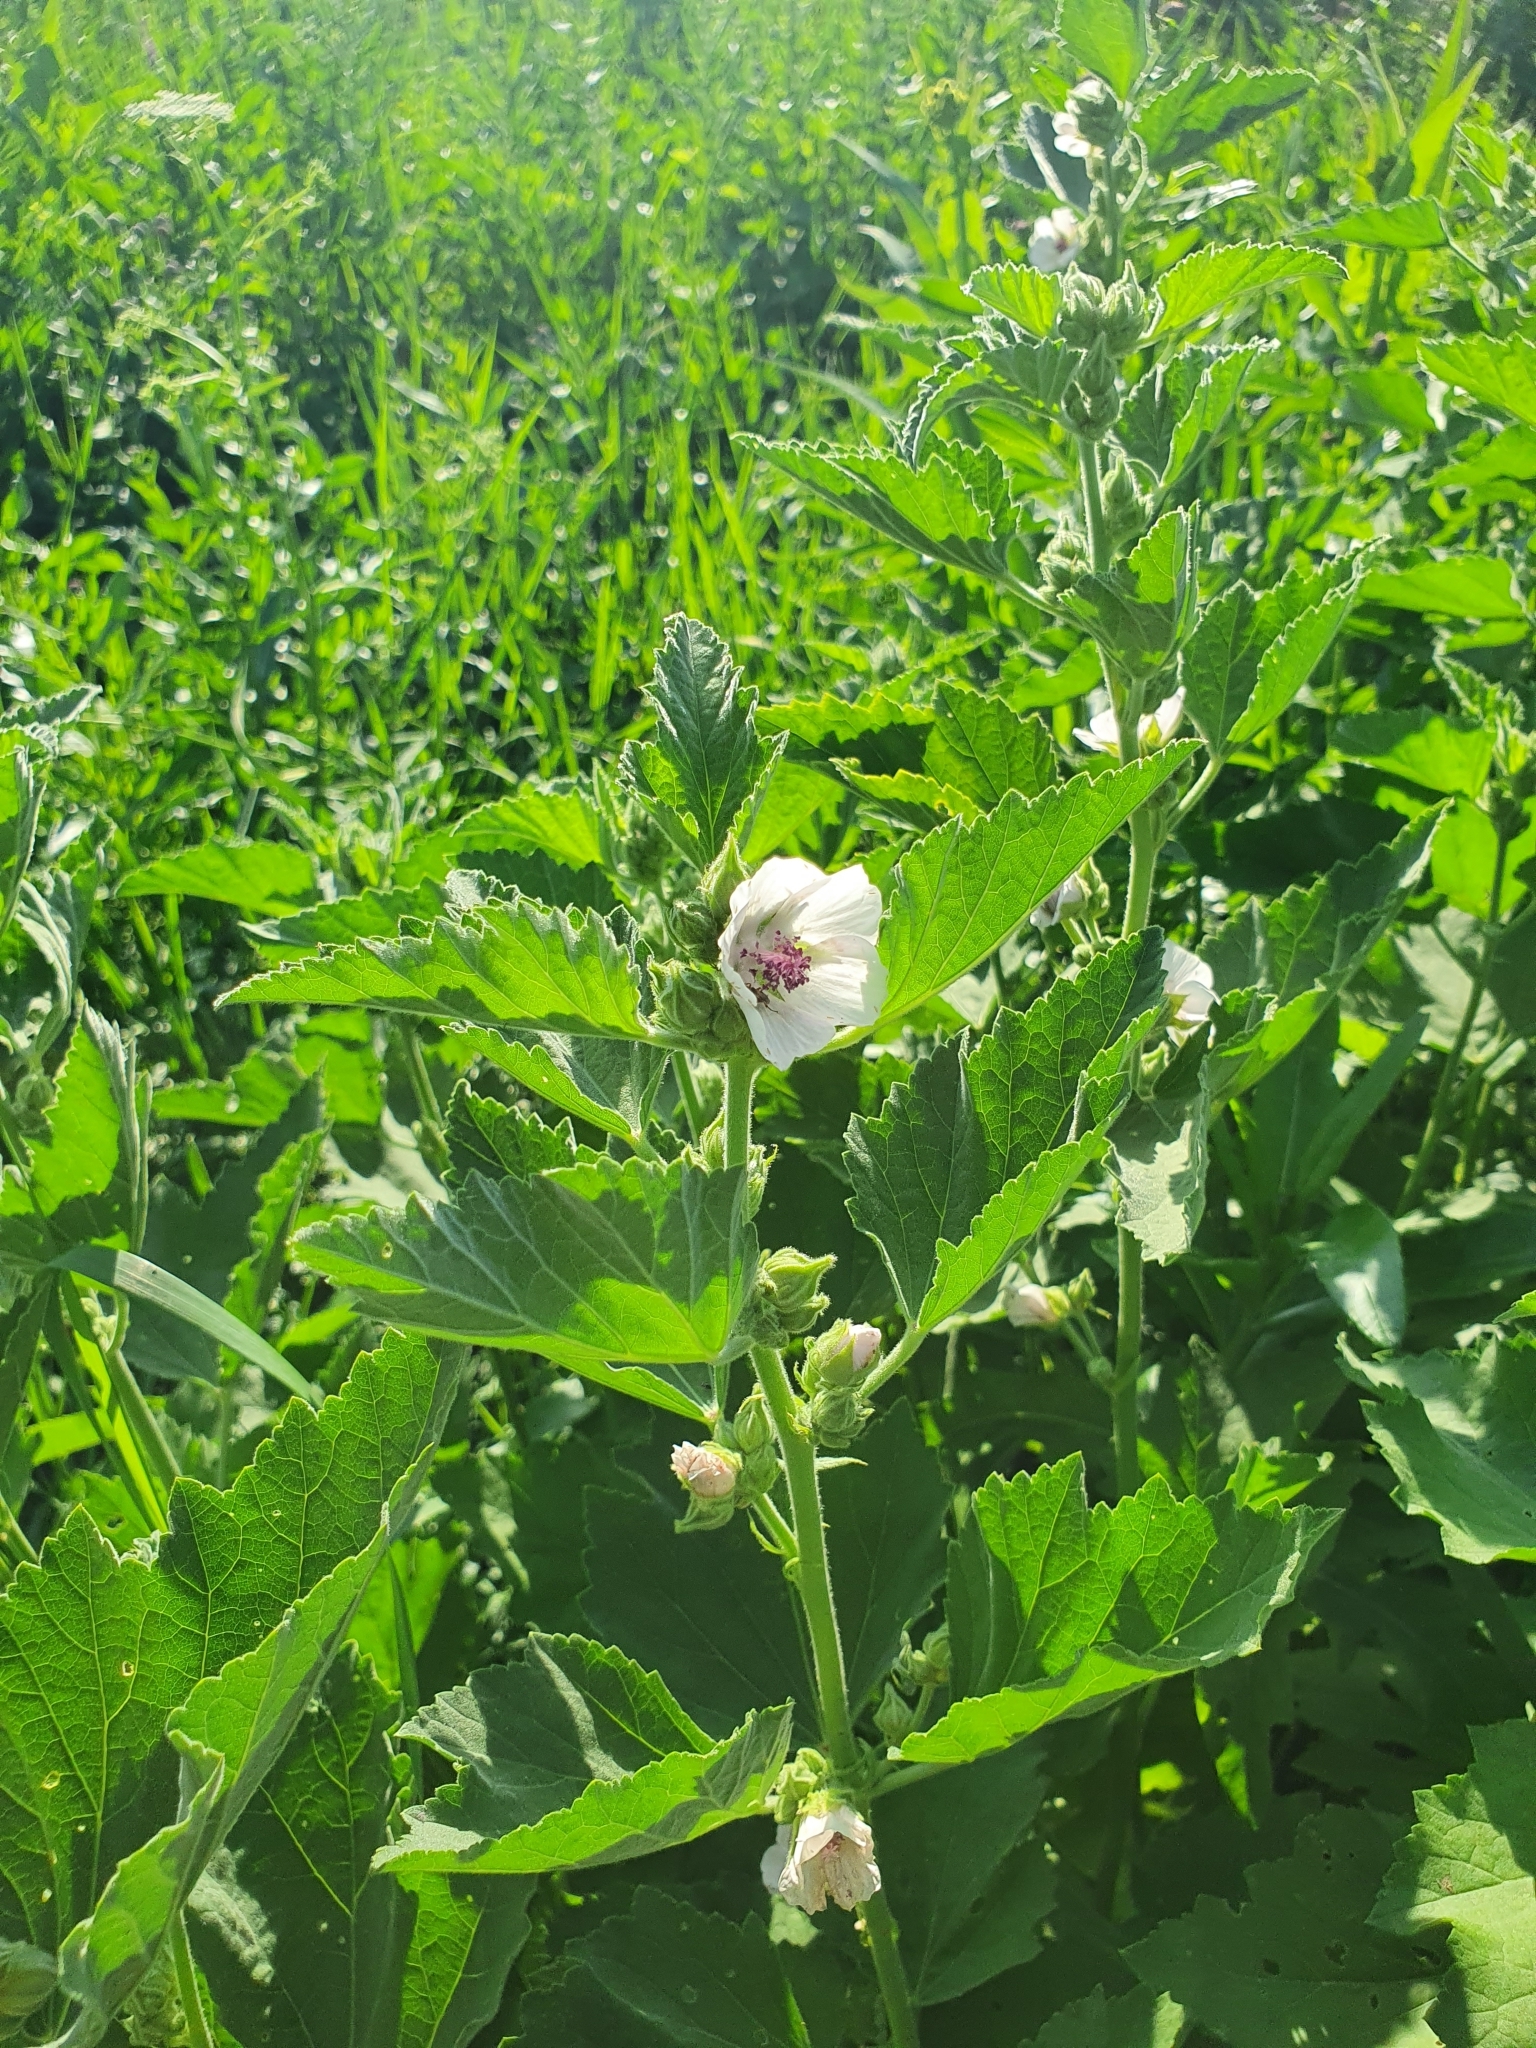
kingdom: Plantae
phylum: Tracheophyta
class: Magnoliopsida
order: Malvales
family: Malvaceae
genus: Althaea
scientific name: Althaea officinalis
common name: Marsh-mallow
